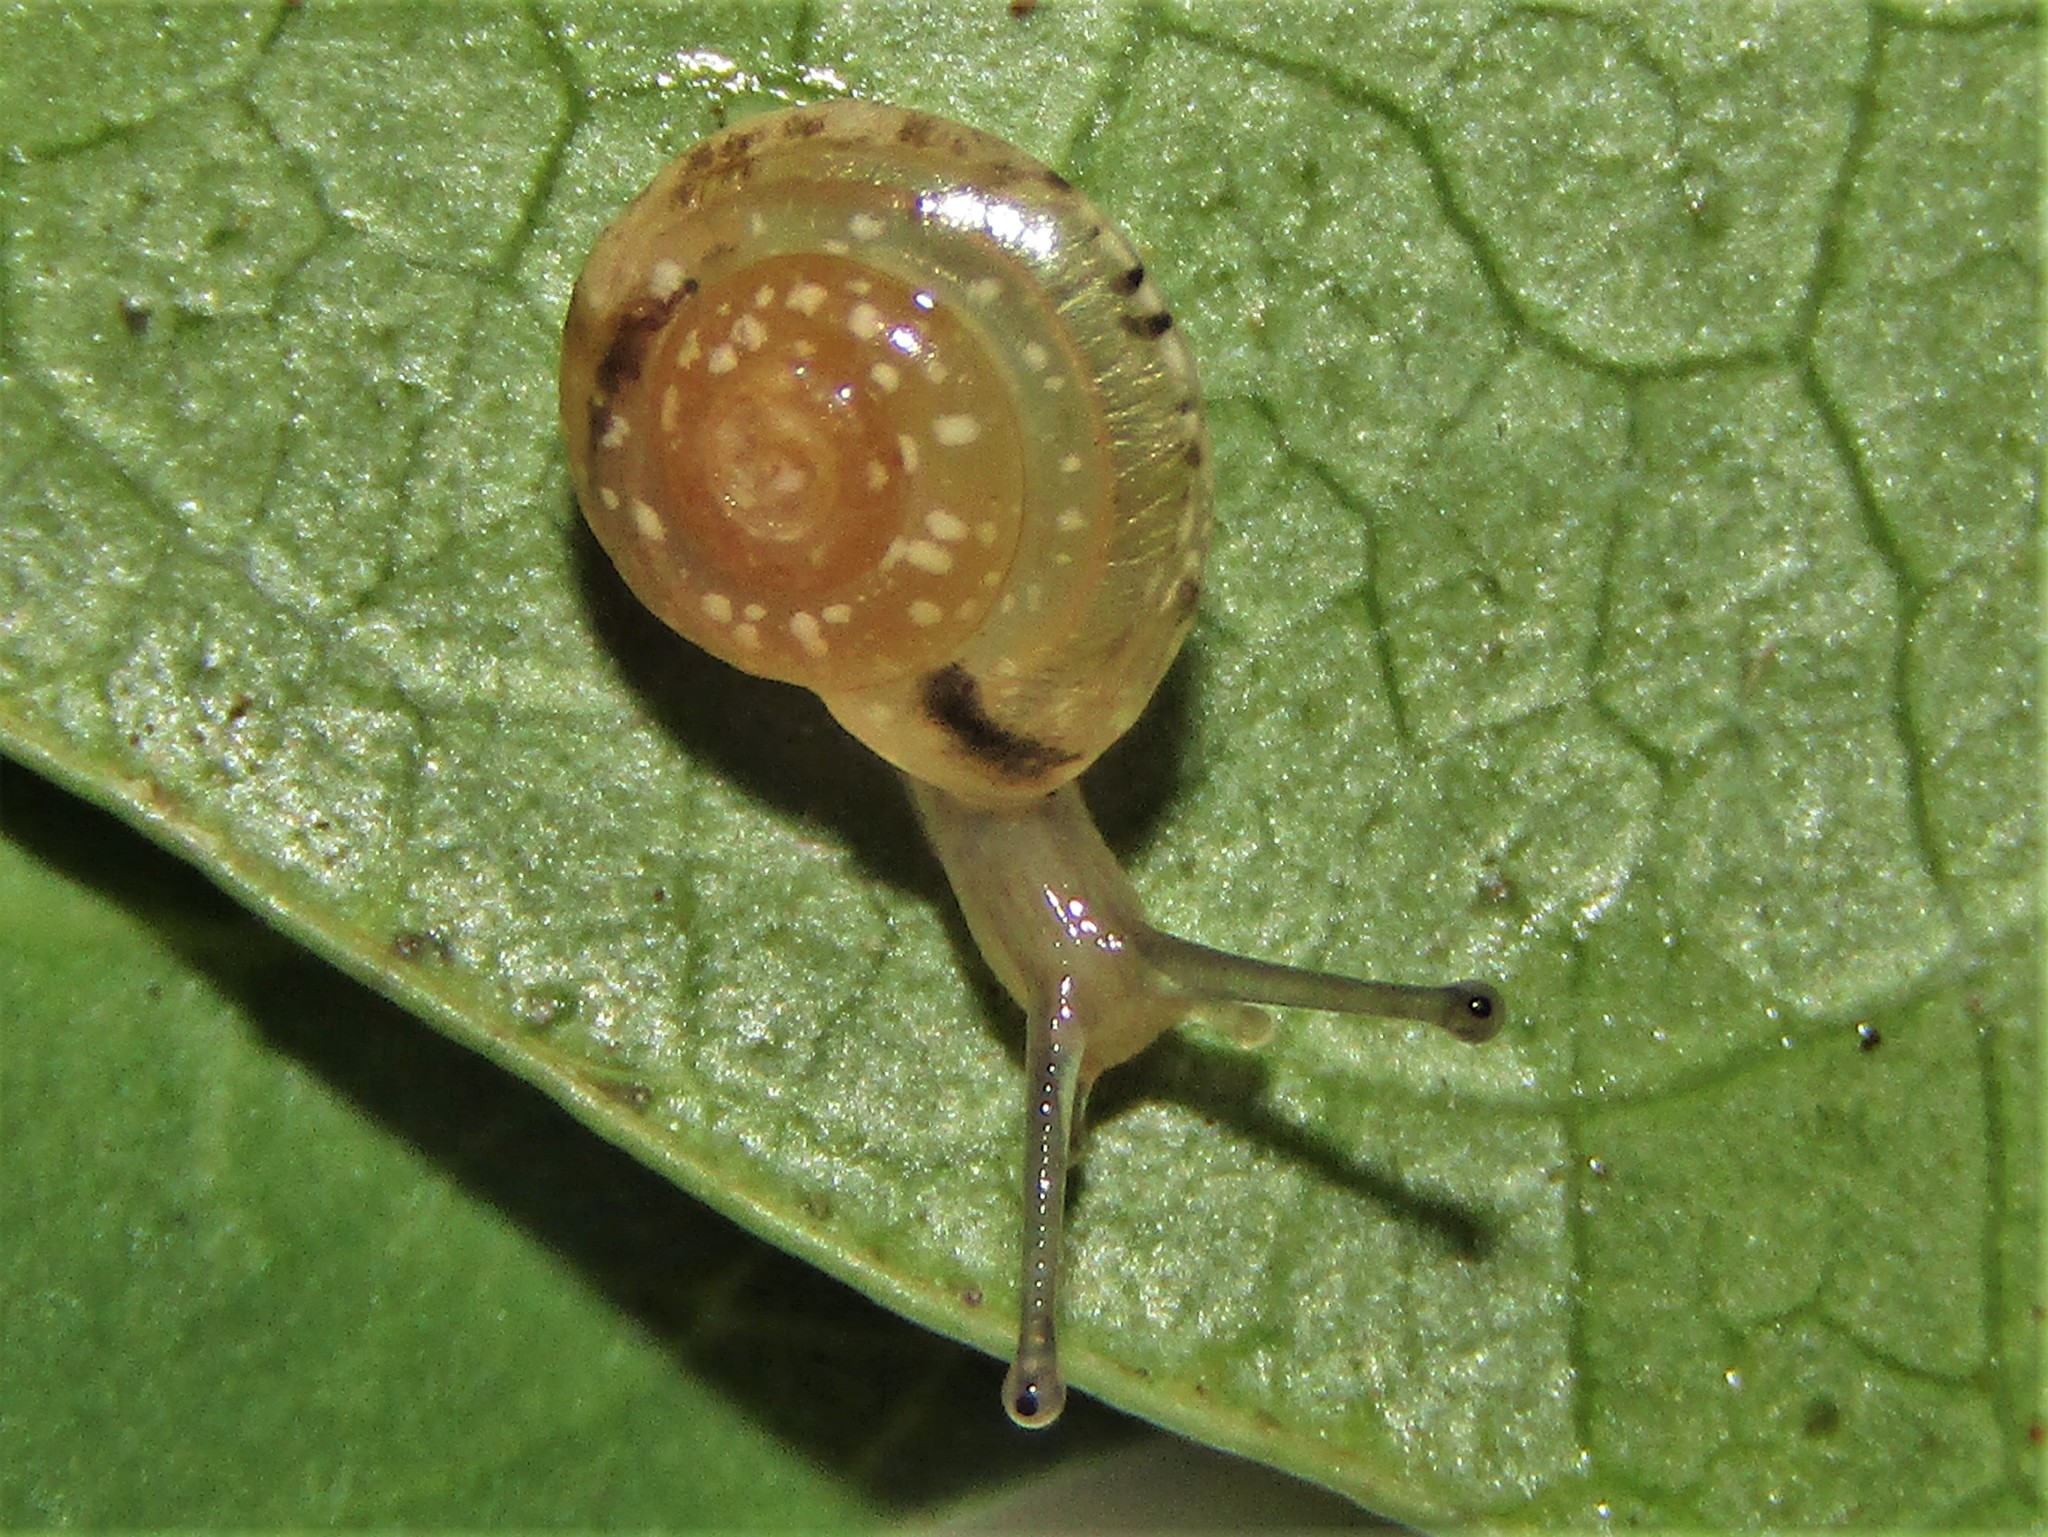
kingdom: Animalia
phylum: Mollusca
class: Gastropoda
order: Stylommatophora
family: Hygromiidae
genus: Hygromia
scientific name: Hygromia cinctella
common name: Girdled snail
